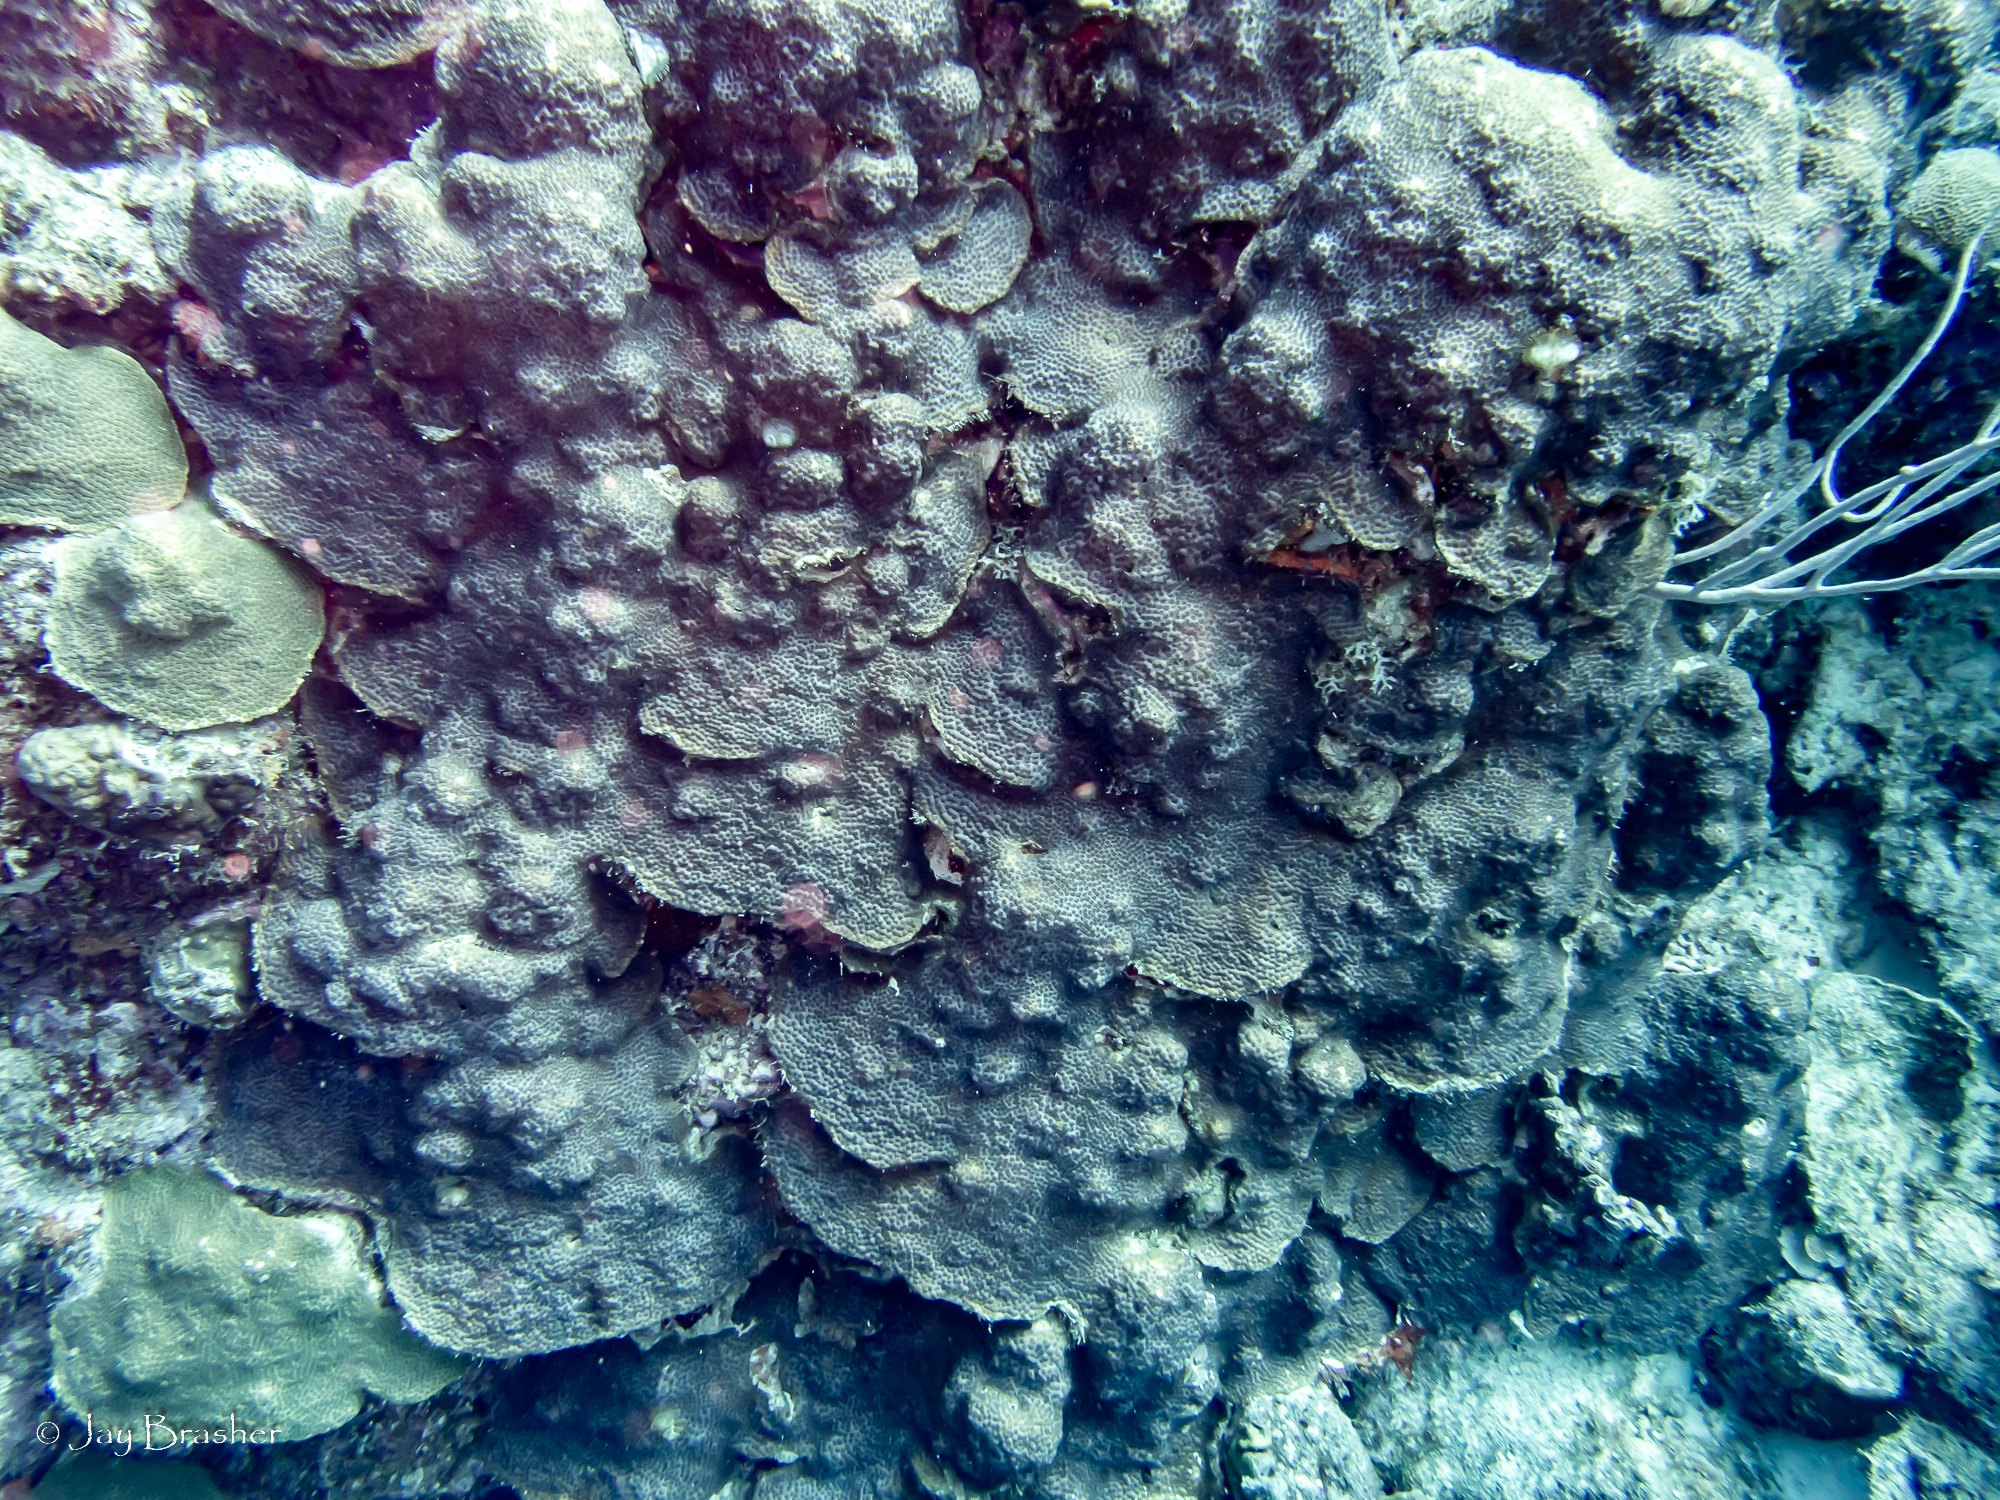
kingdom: Animalia
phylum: Cnidaria
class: Anthozoa
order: Scleractinia
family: Merulinidae
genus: Orbicella
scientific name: Orbicella faveolata
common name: Mountainous star coral
